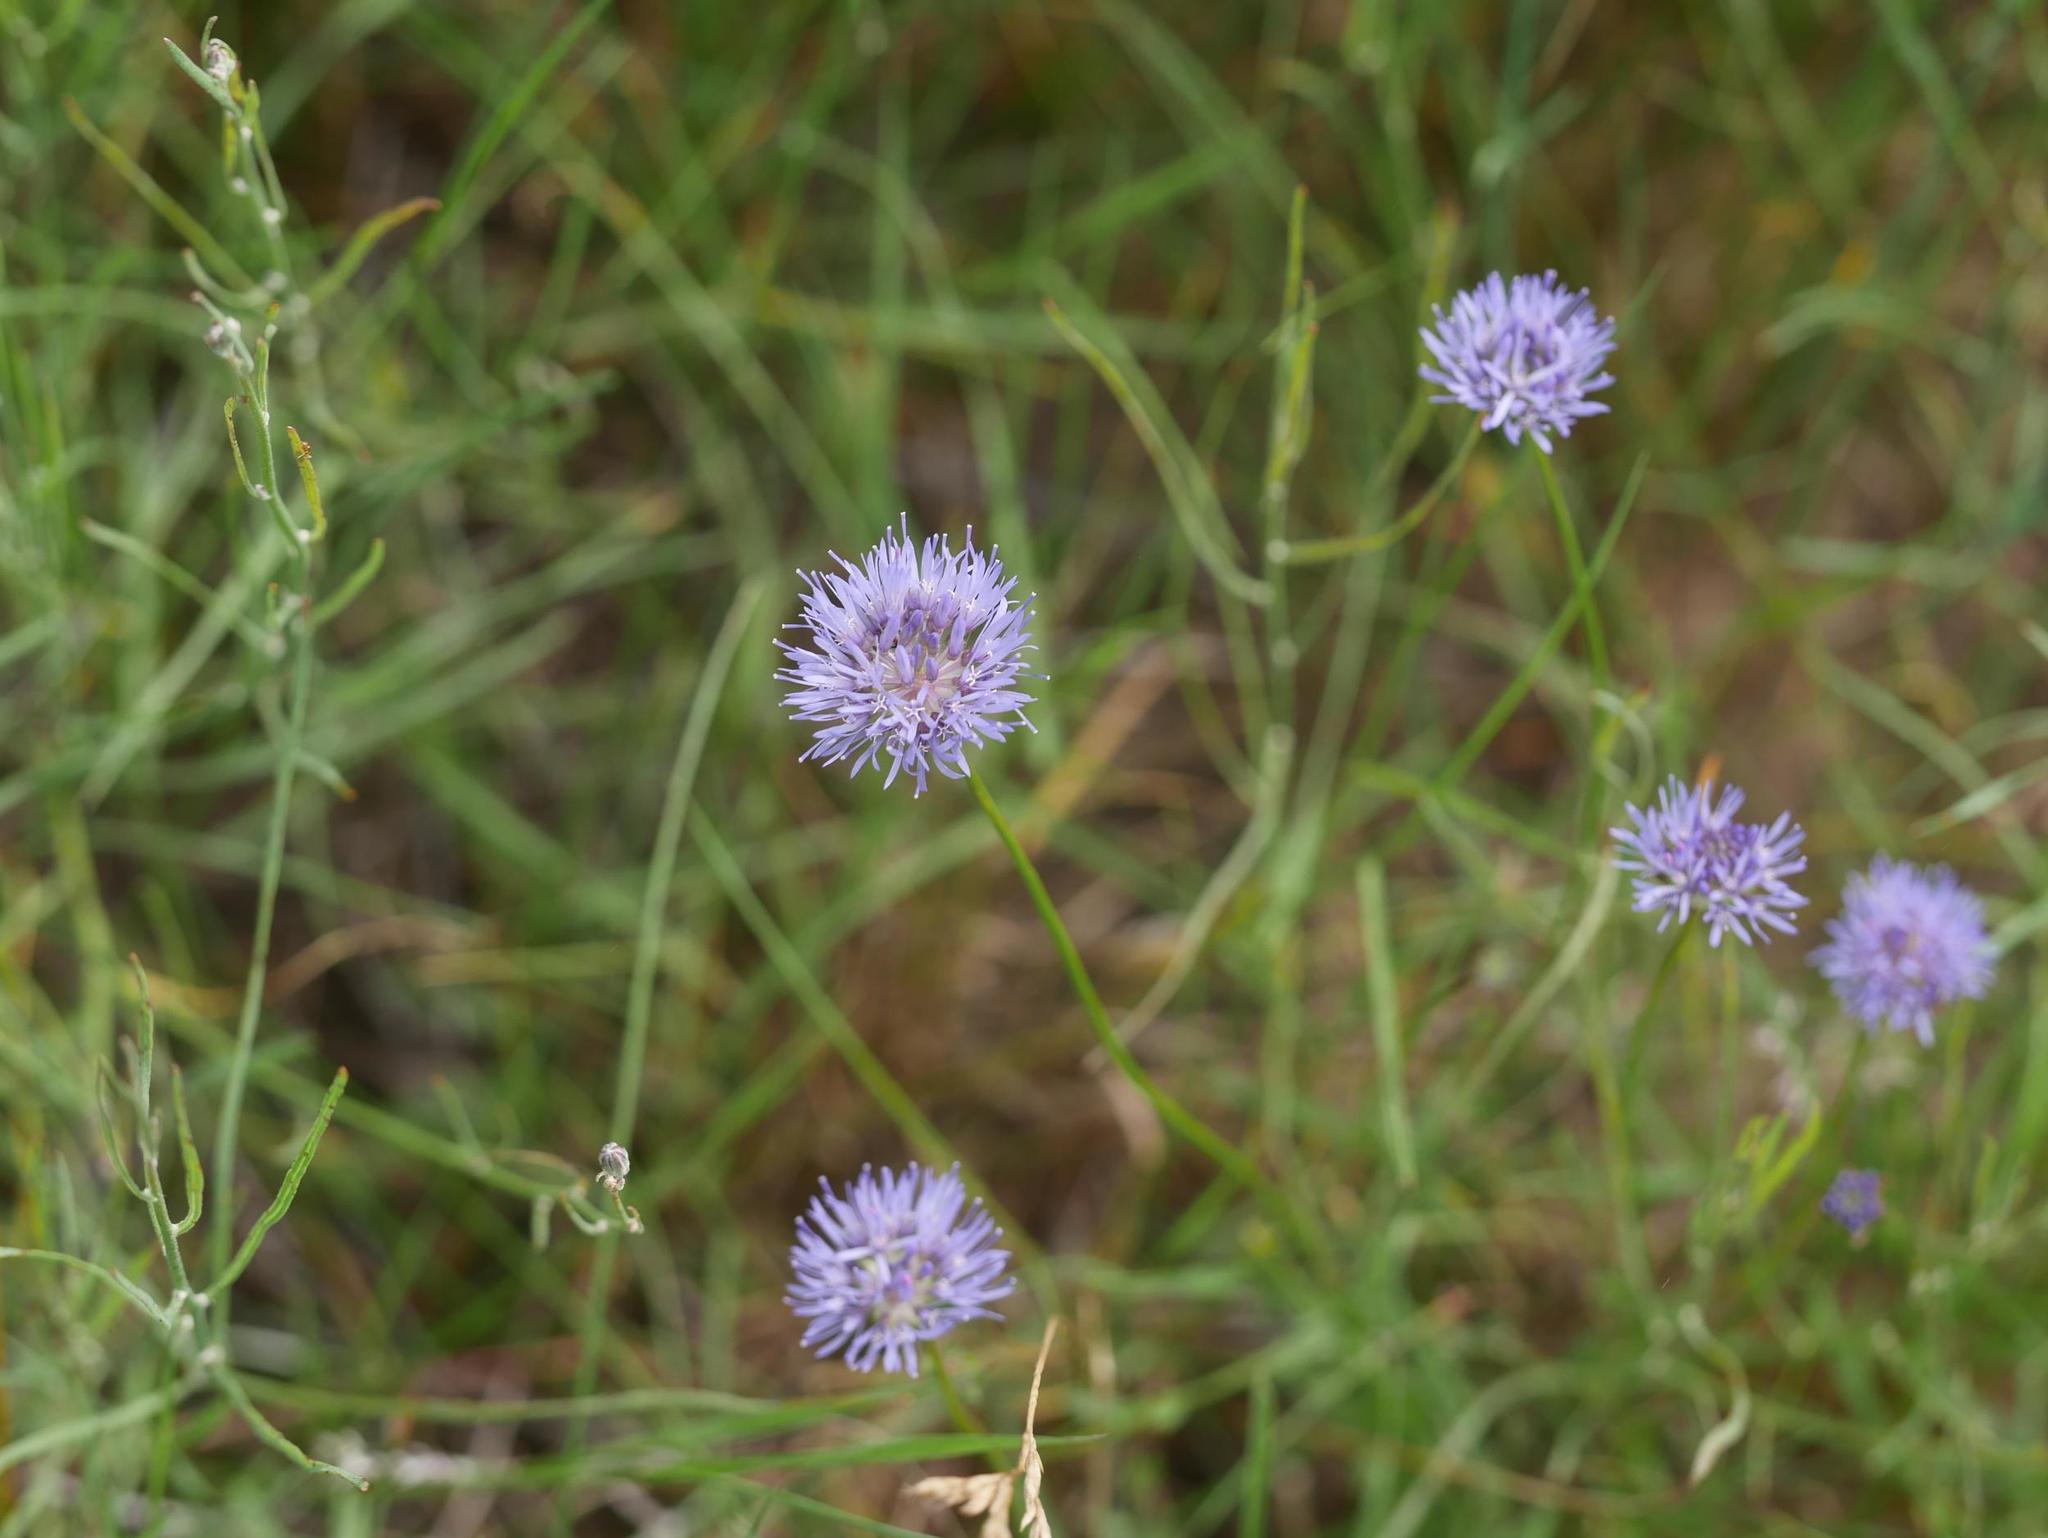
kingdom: Plantae
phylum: Tracheophyta
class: Magnoliopsida
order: Asterales
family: Campanulaceae
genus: Jasione
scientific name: Jasione montana
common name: Sheep's-bit
